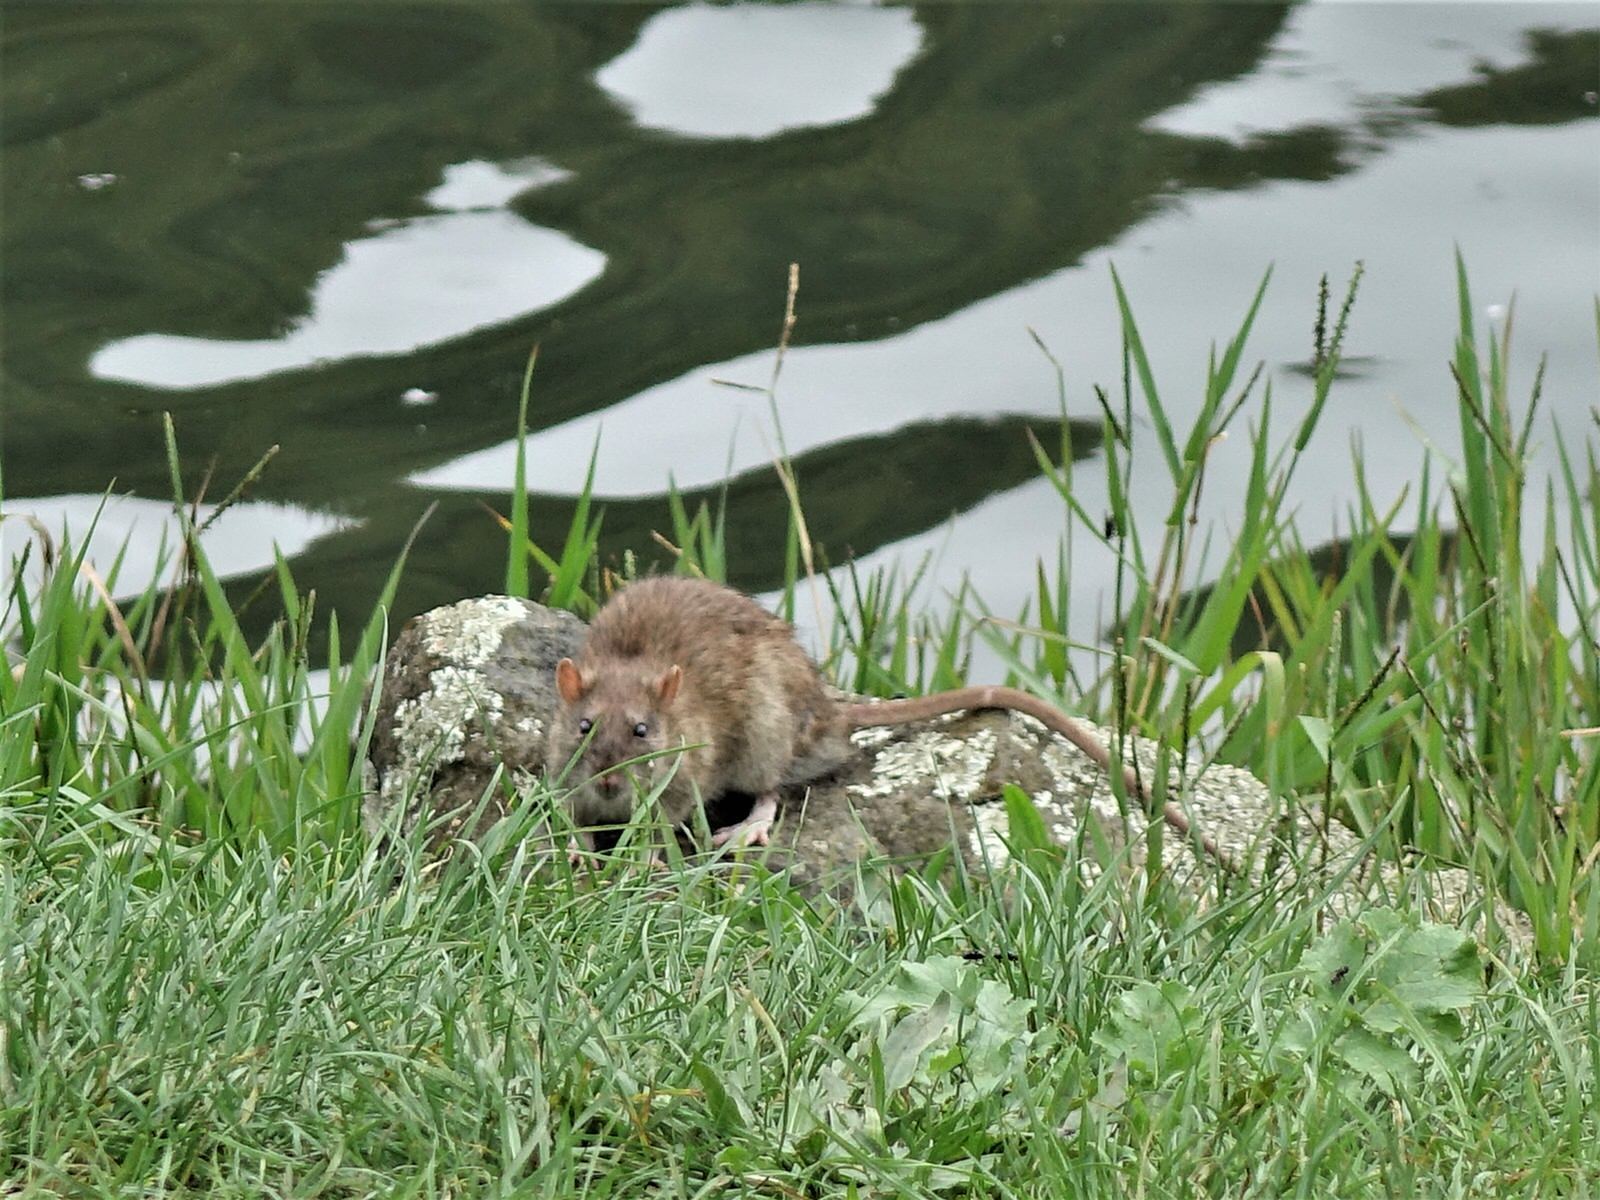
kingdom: Animalia
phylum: Chordata
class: Mammalia
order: Rodentia
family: Muridae
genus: Rattus
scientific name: Rattus norvegicus
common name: Brown rat
